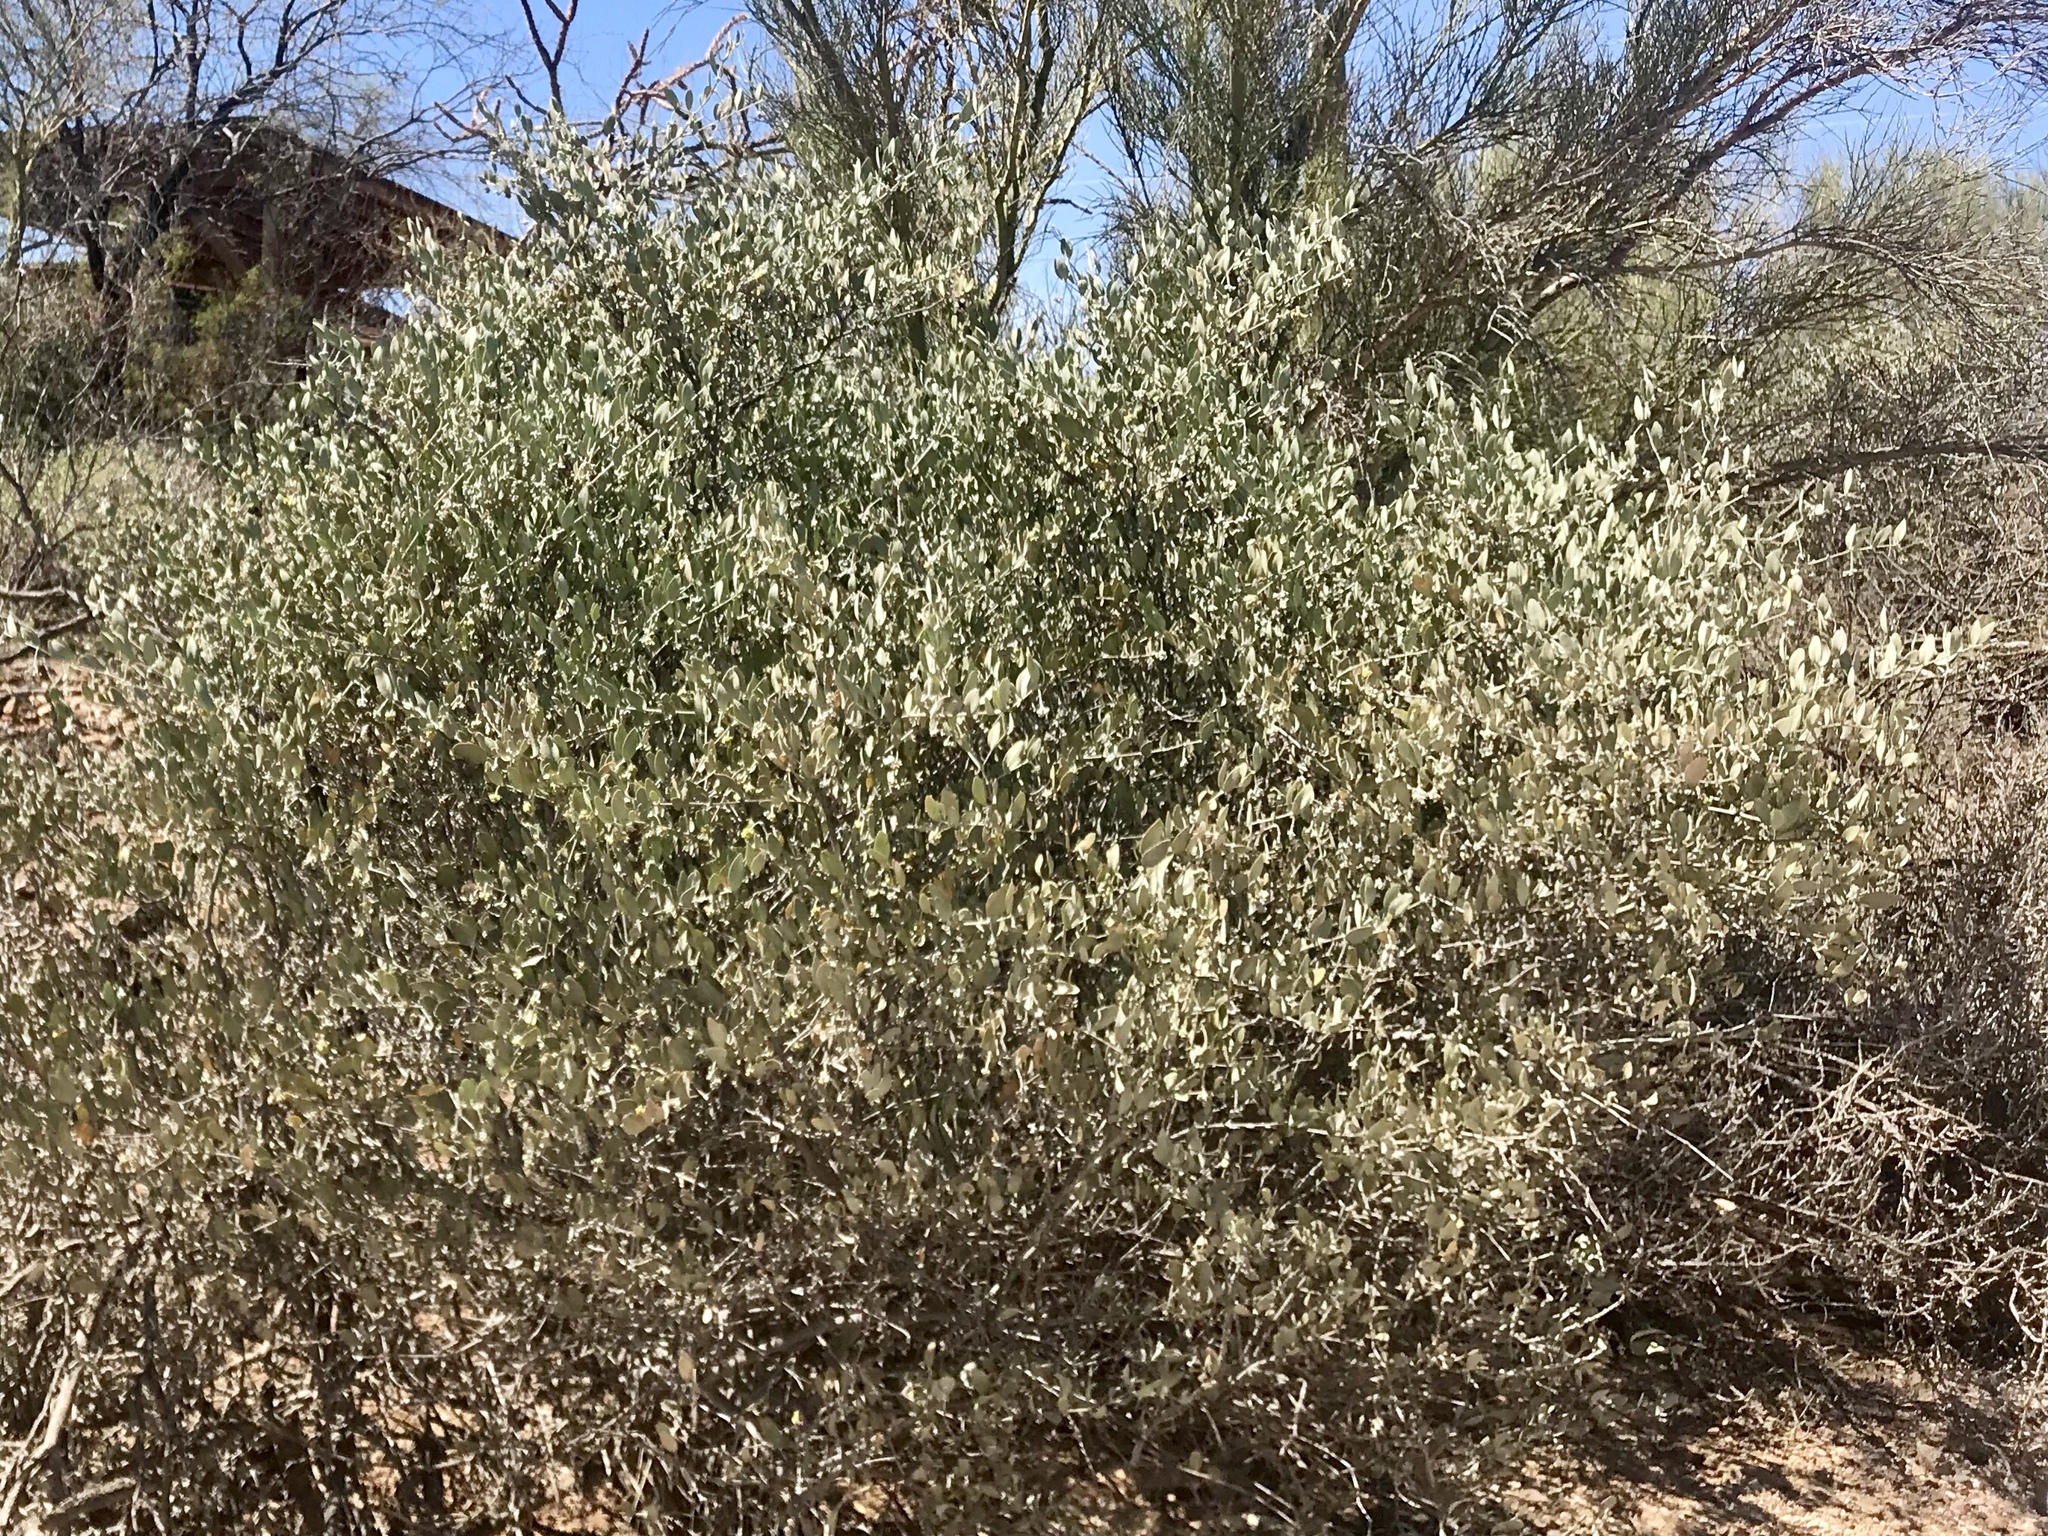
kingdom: Plantae
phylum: Tracheophyta
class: Magnoliopsida
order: Caryophyllales
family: Simmondsiaceae
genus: Simmondsia
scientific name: Simmondsia chinensis
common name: Jojoba
